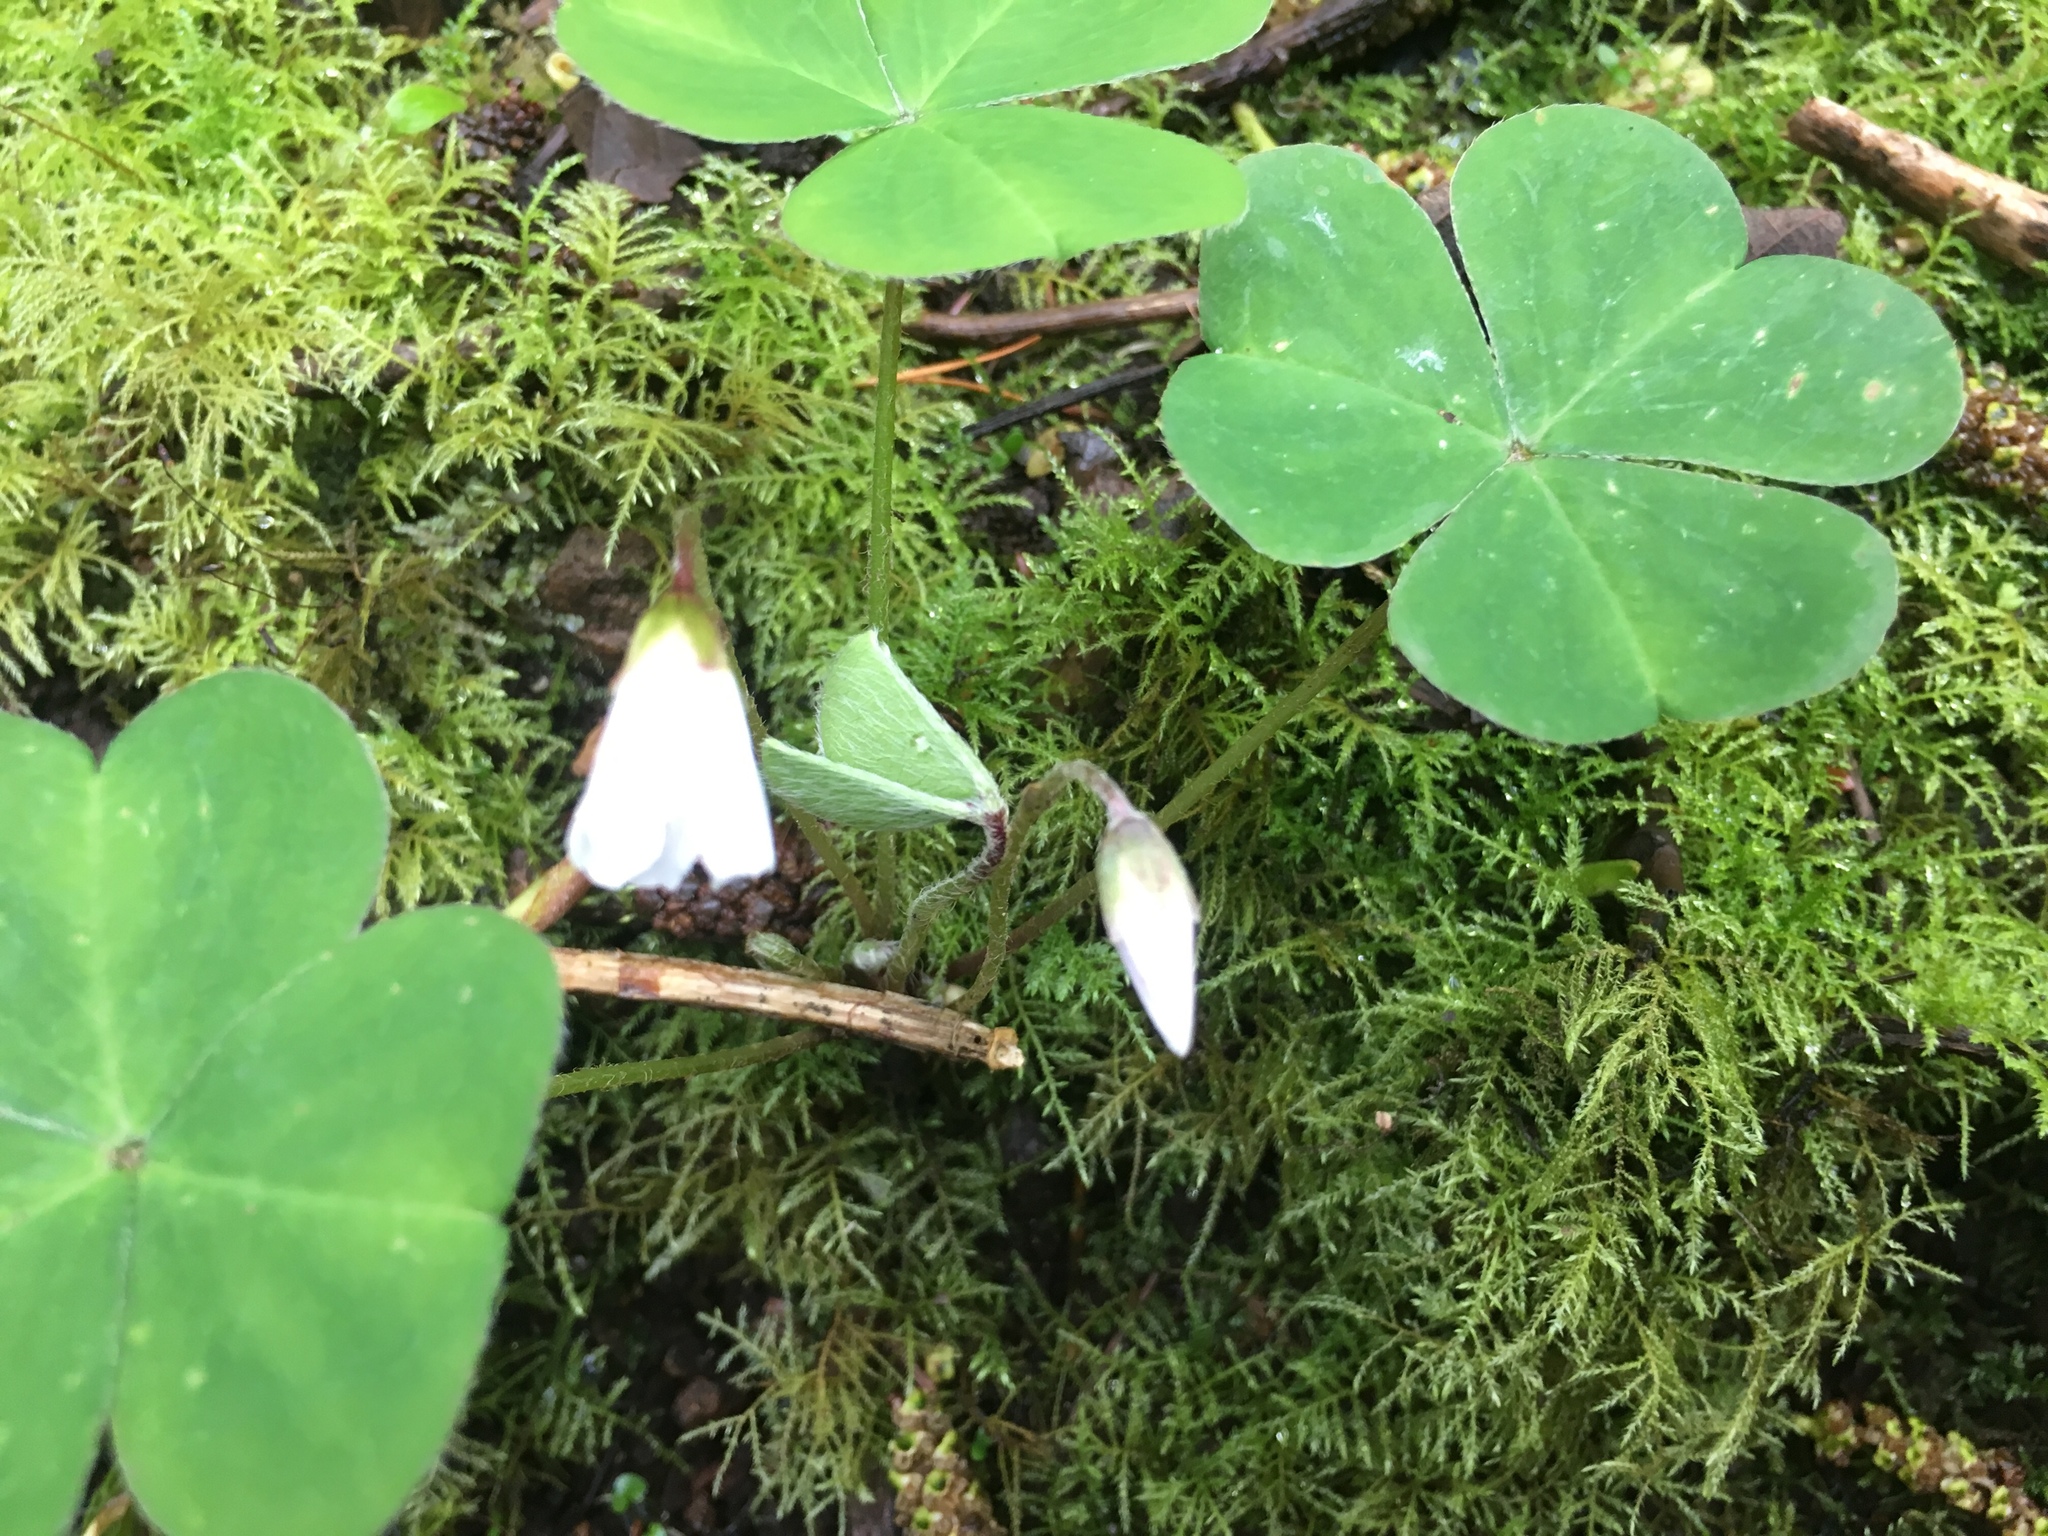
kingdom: Plantae
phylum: Tracheophyta
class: Magnoliopsida
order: Oxalidales
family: Oxalidaceae
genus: Oxalis
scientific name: Oxalis oregana
